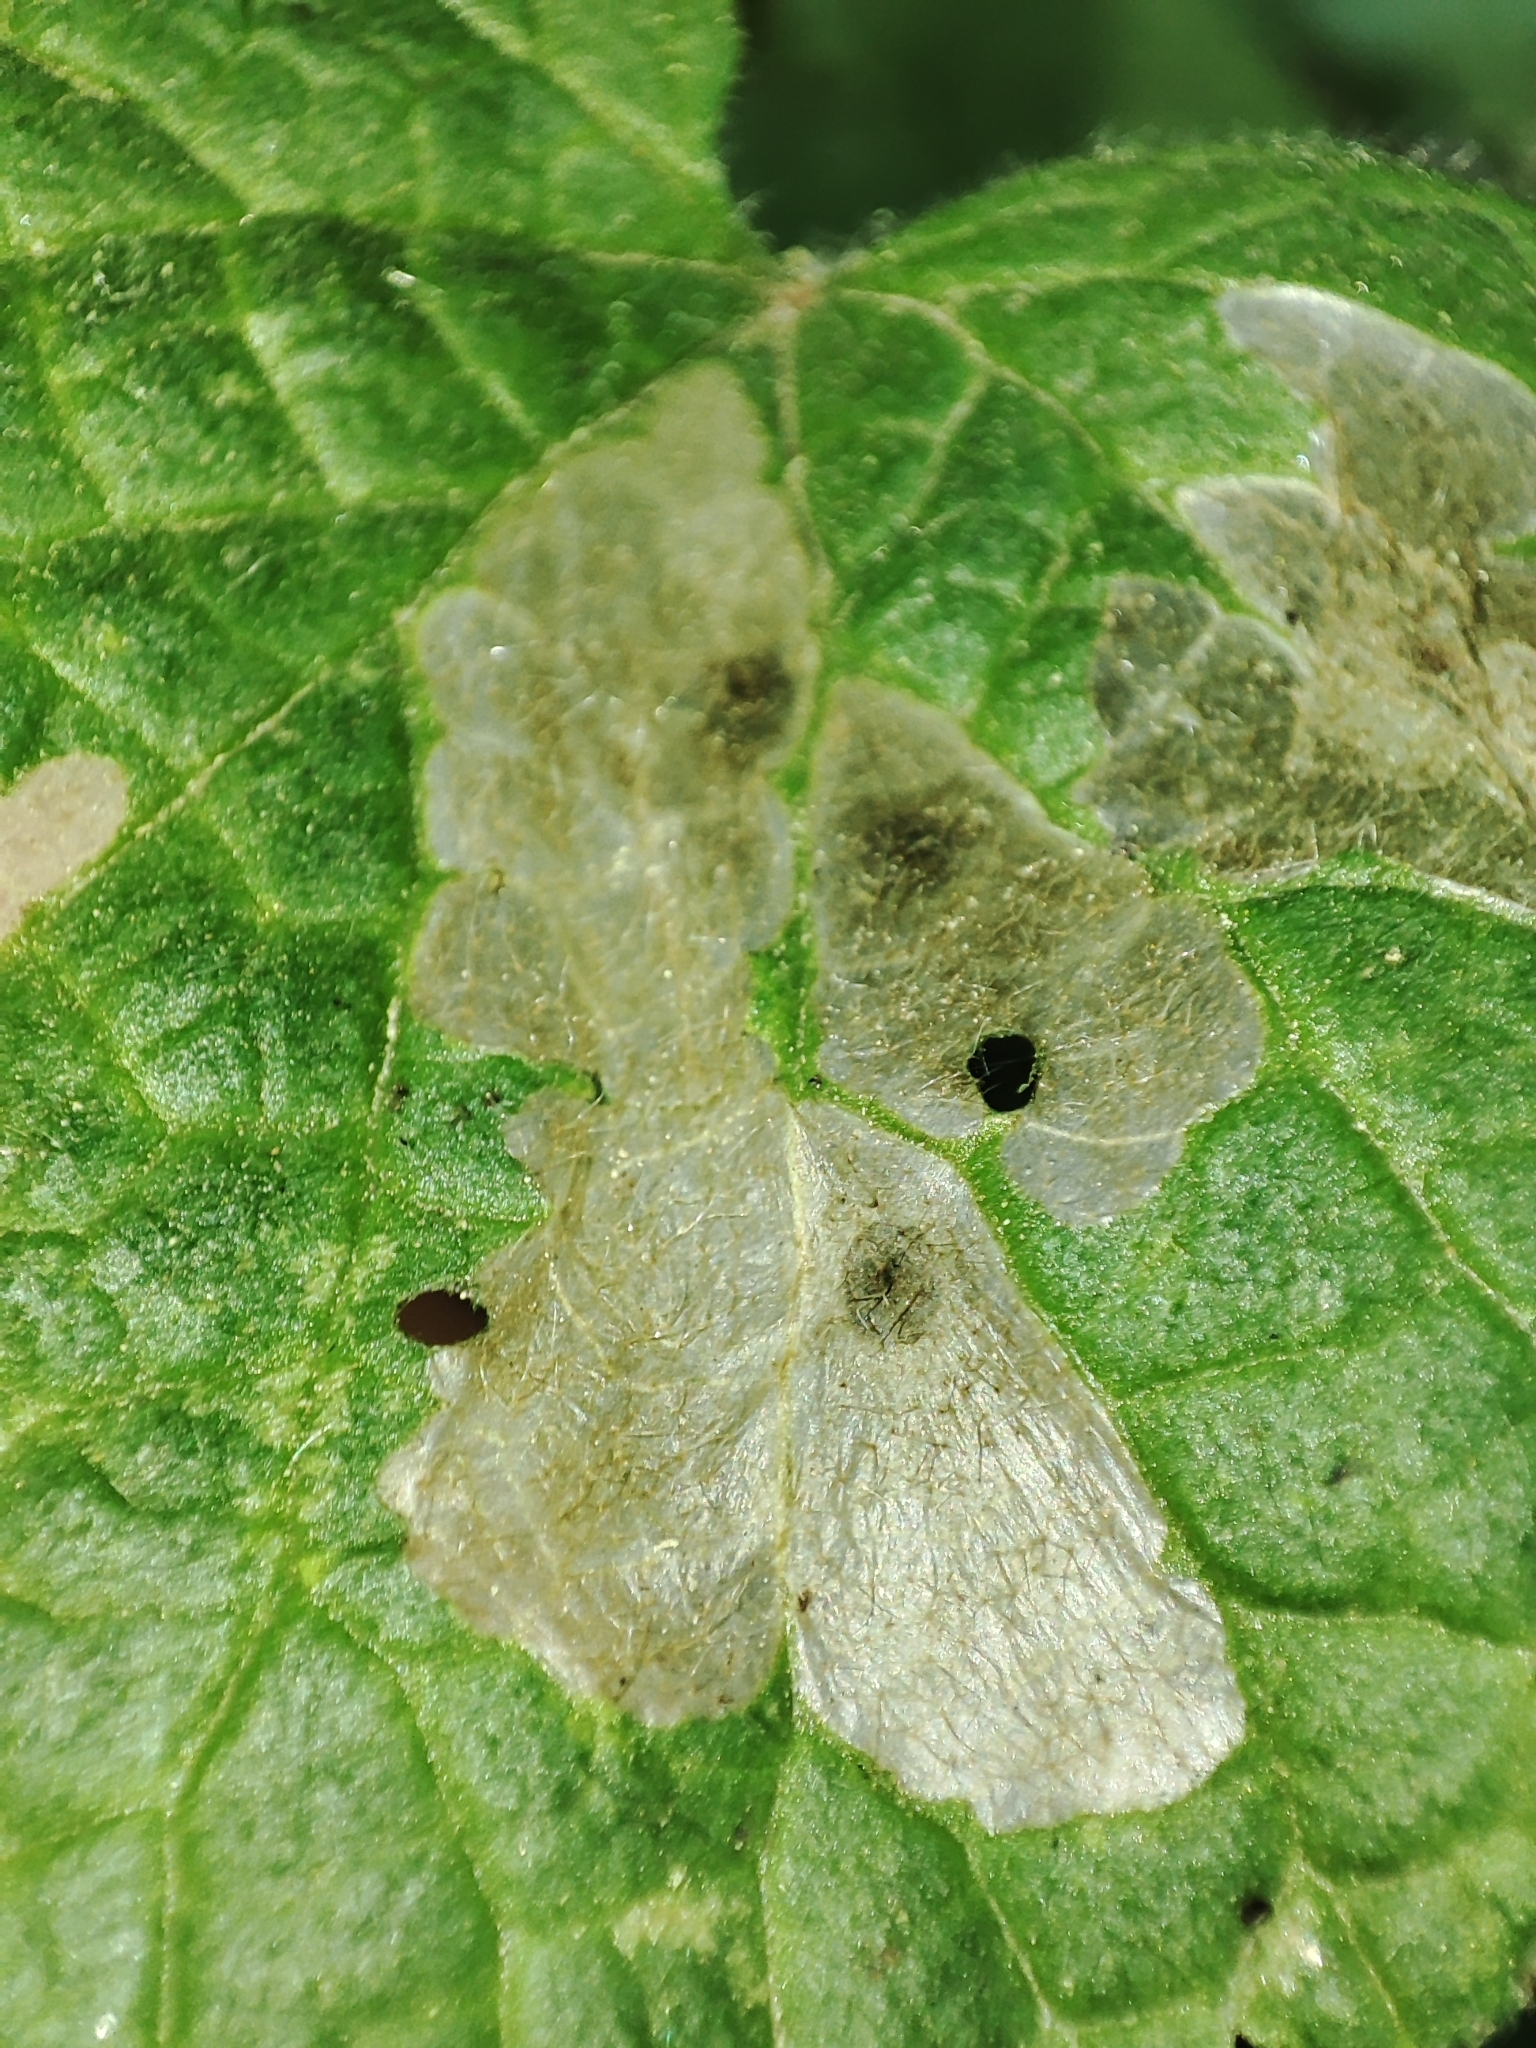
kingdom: Plantae
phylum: Tracheophyta
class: Magnoliopsida
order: Lamiales
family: Lamiaceae
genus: Ballota
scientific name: Ballota nigra
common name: Black horehound
